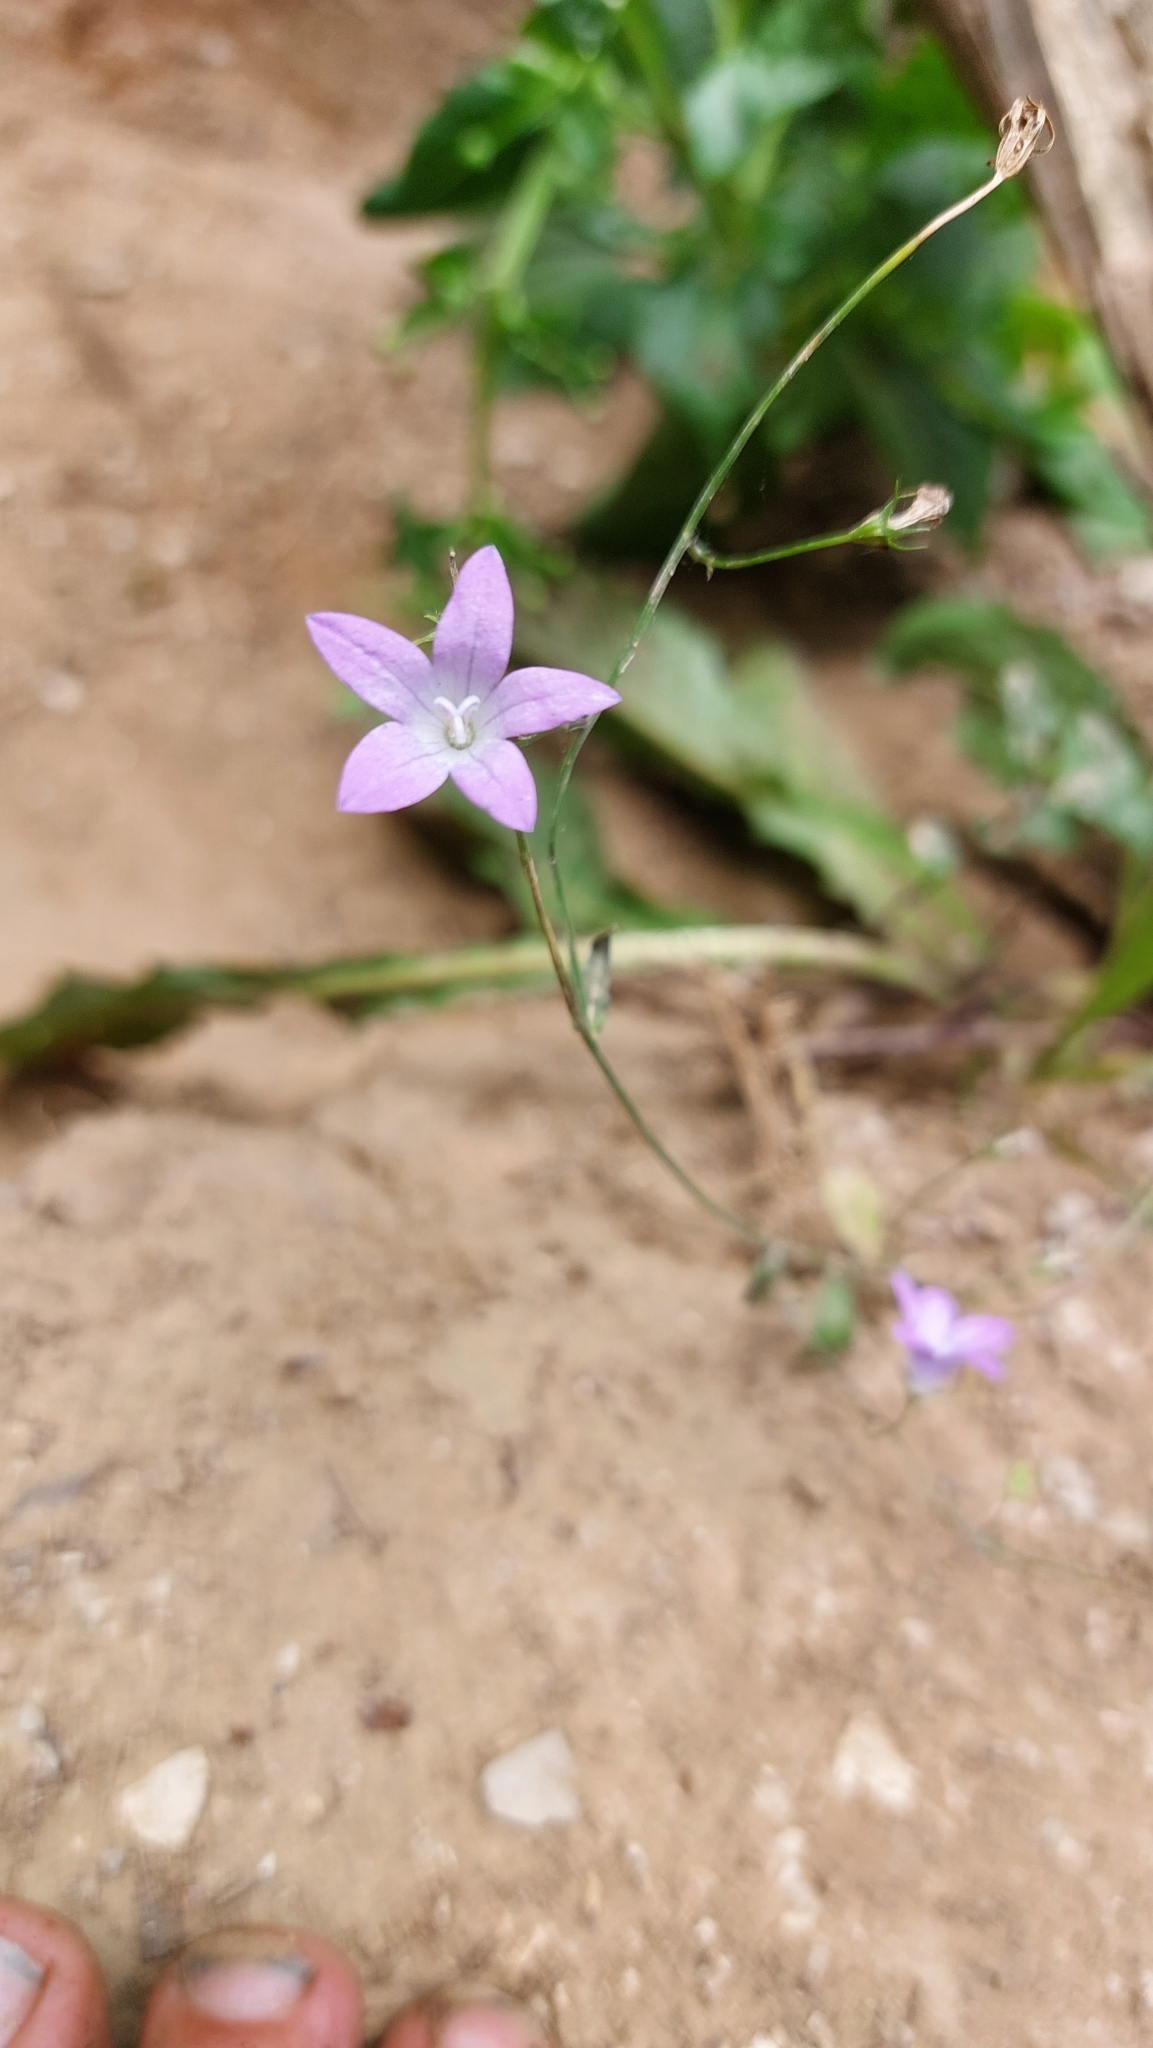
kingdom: Plantae
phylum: Tracheophyta
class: Magnoliopsida
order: Asterales
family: Campanulaceae
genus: Campanula
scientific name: Campanula patula
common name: Spreading bellflower
